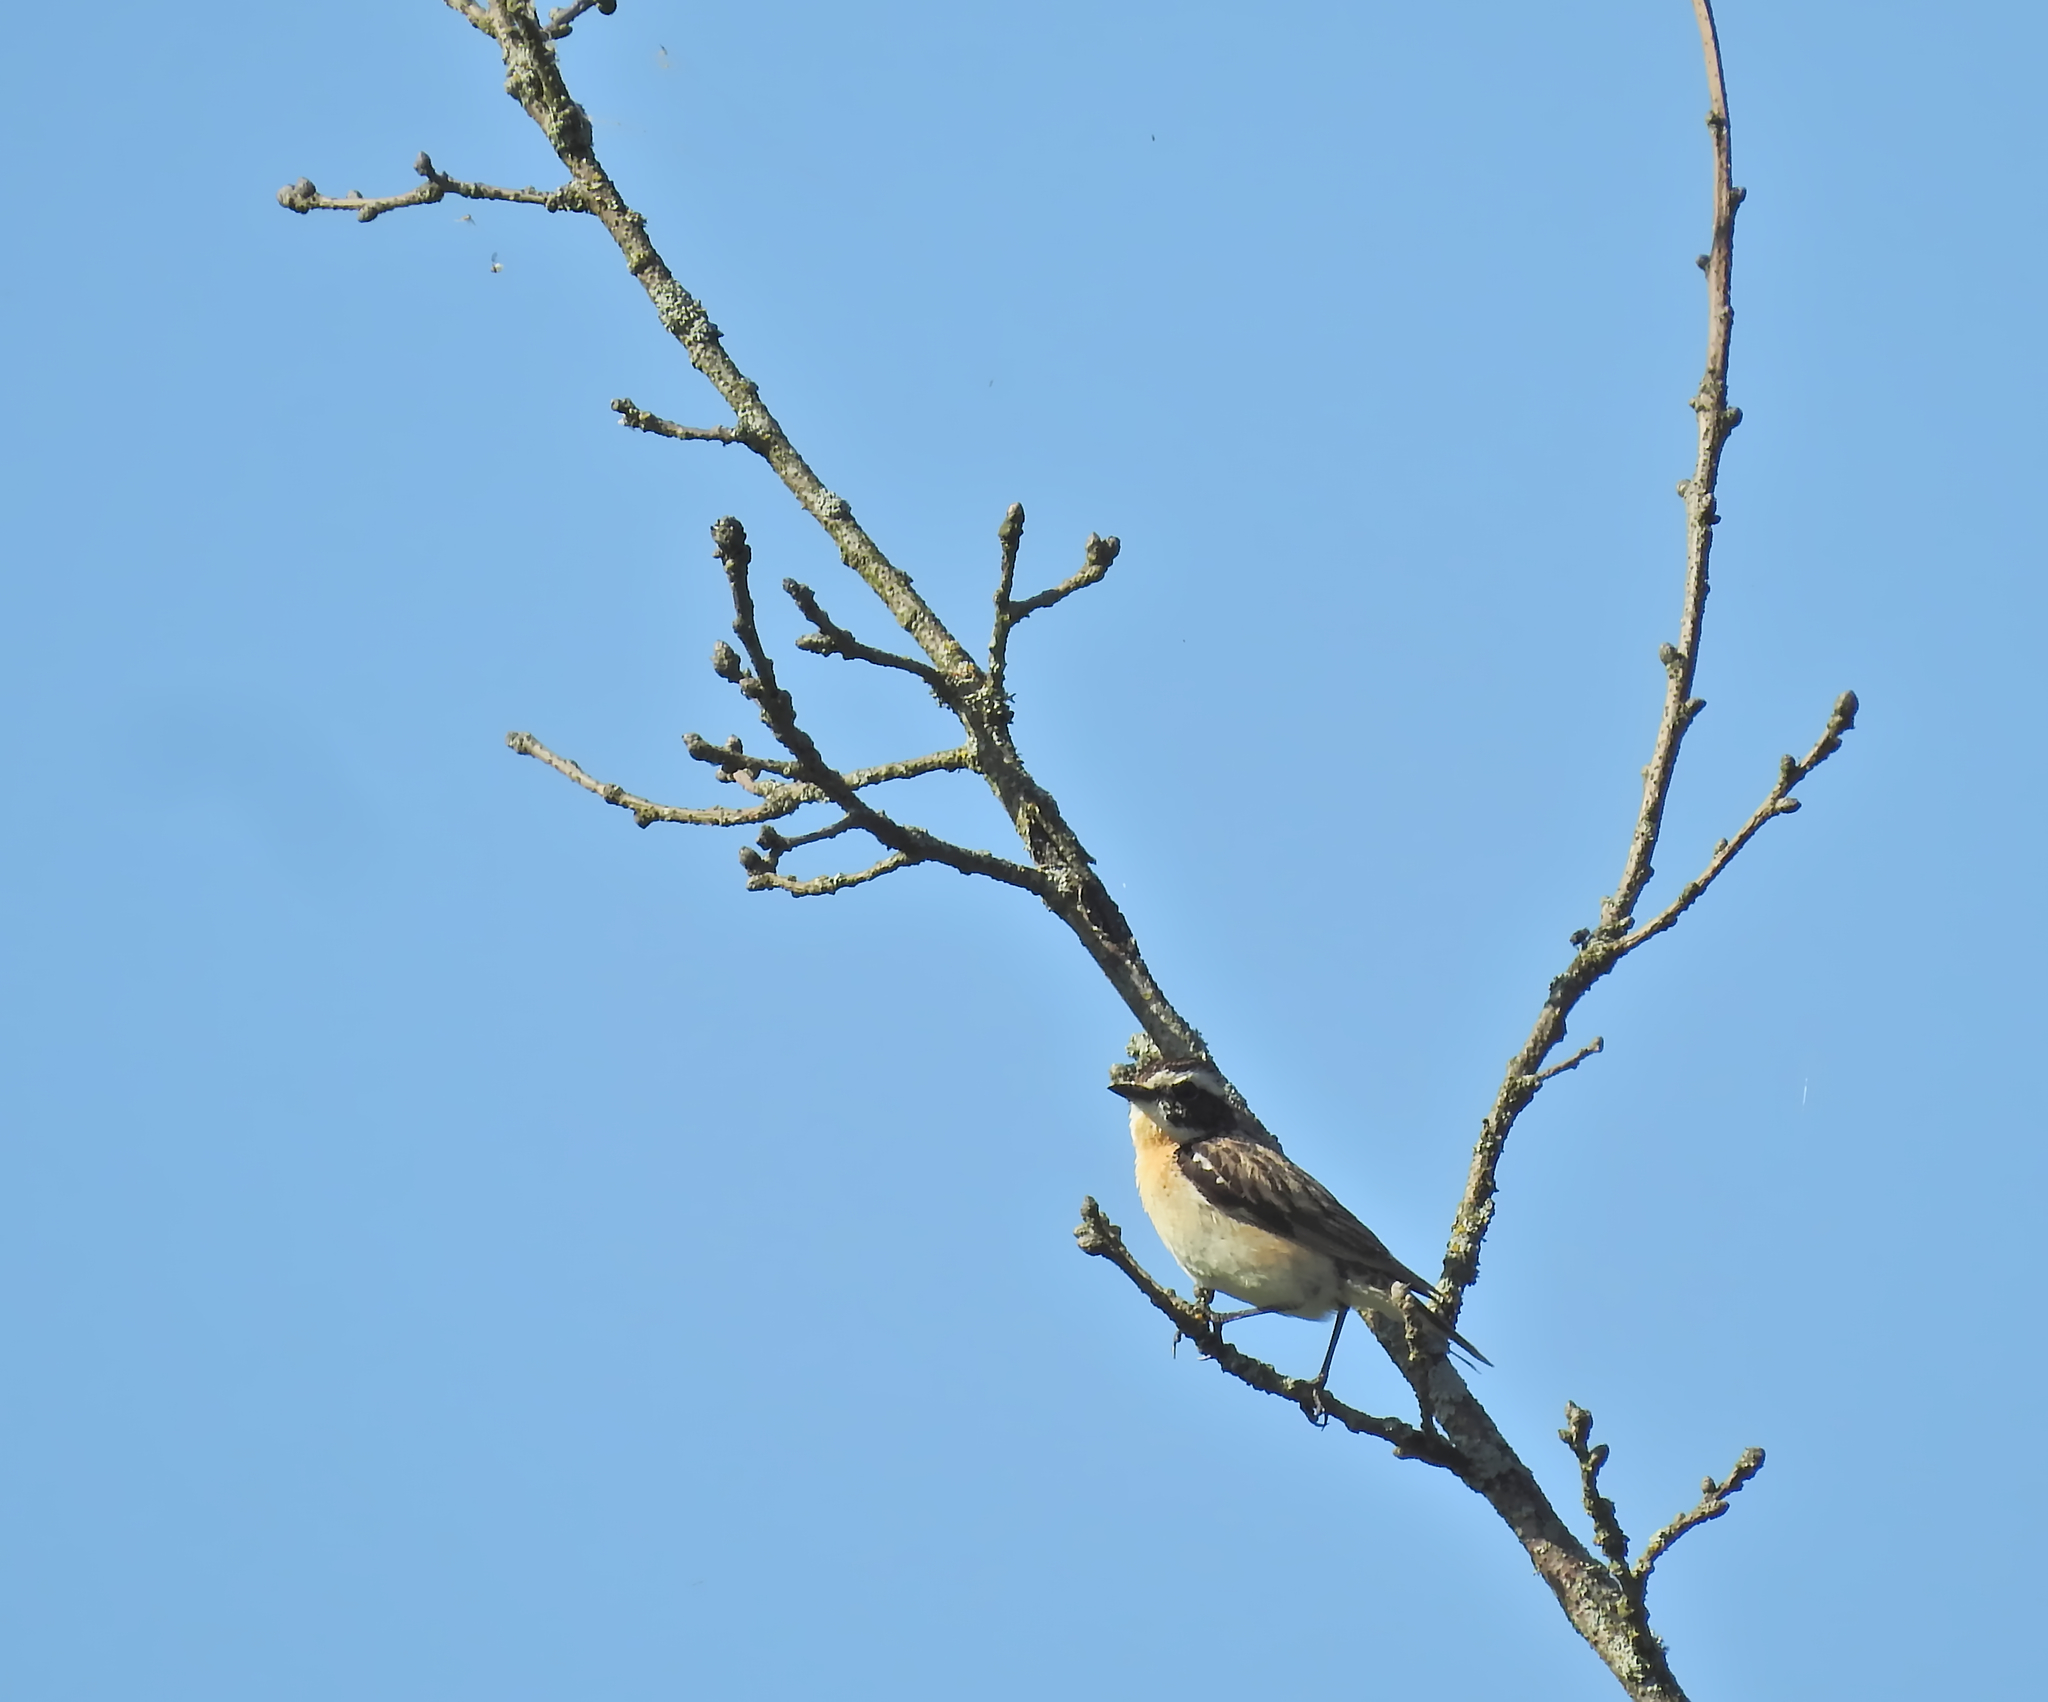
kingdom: Animalia
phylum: Chordata
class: Aves
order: Passeriformes
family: Muscicapidae
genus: Saxicola
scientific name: Saxicola rubetra
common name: Whinchat
